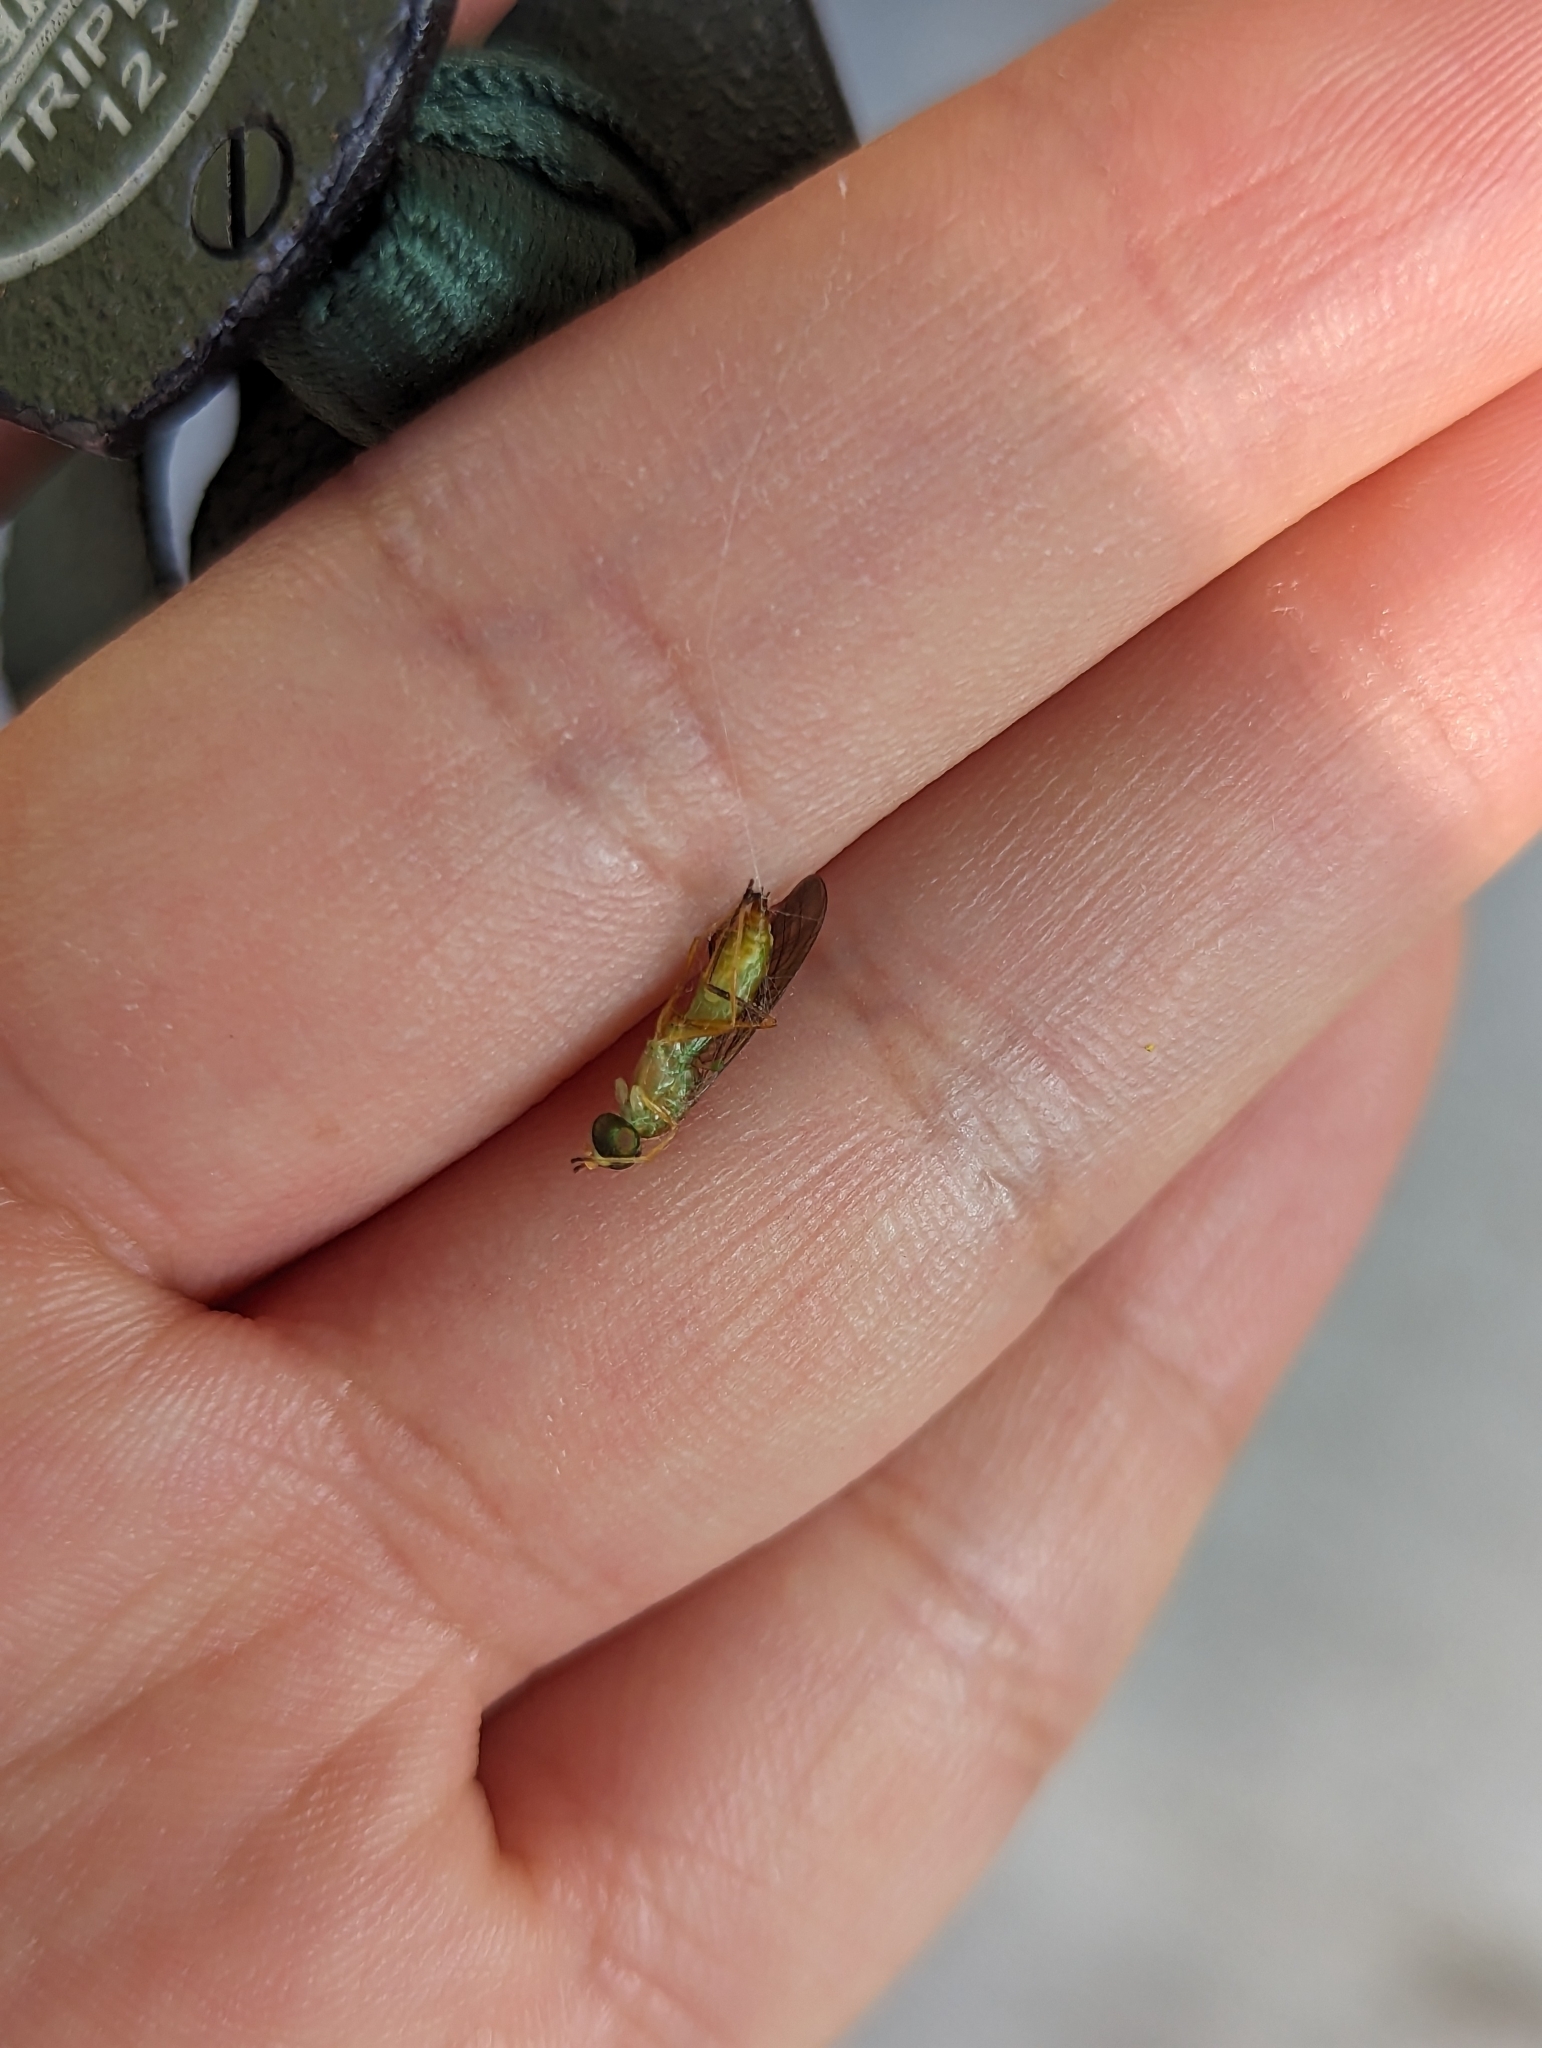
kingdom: Animalia
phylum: Arthropoda
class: Insecta
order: Diptera
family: Stratiomyidae
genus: Ptecticus
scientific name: Ptecticus trivittatus
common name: Compost fly
